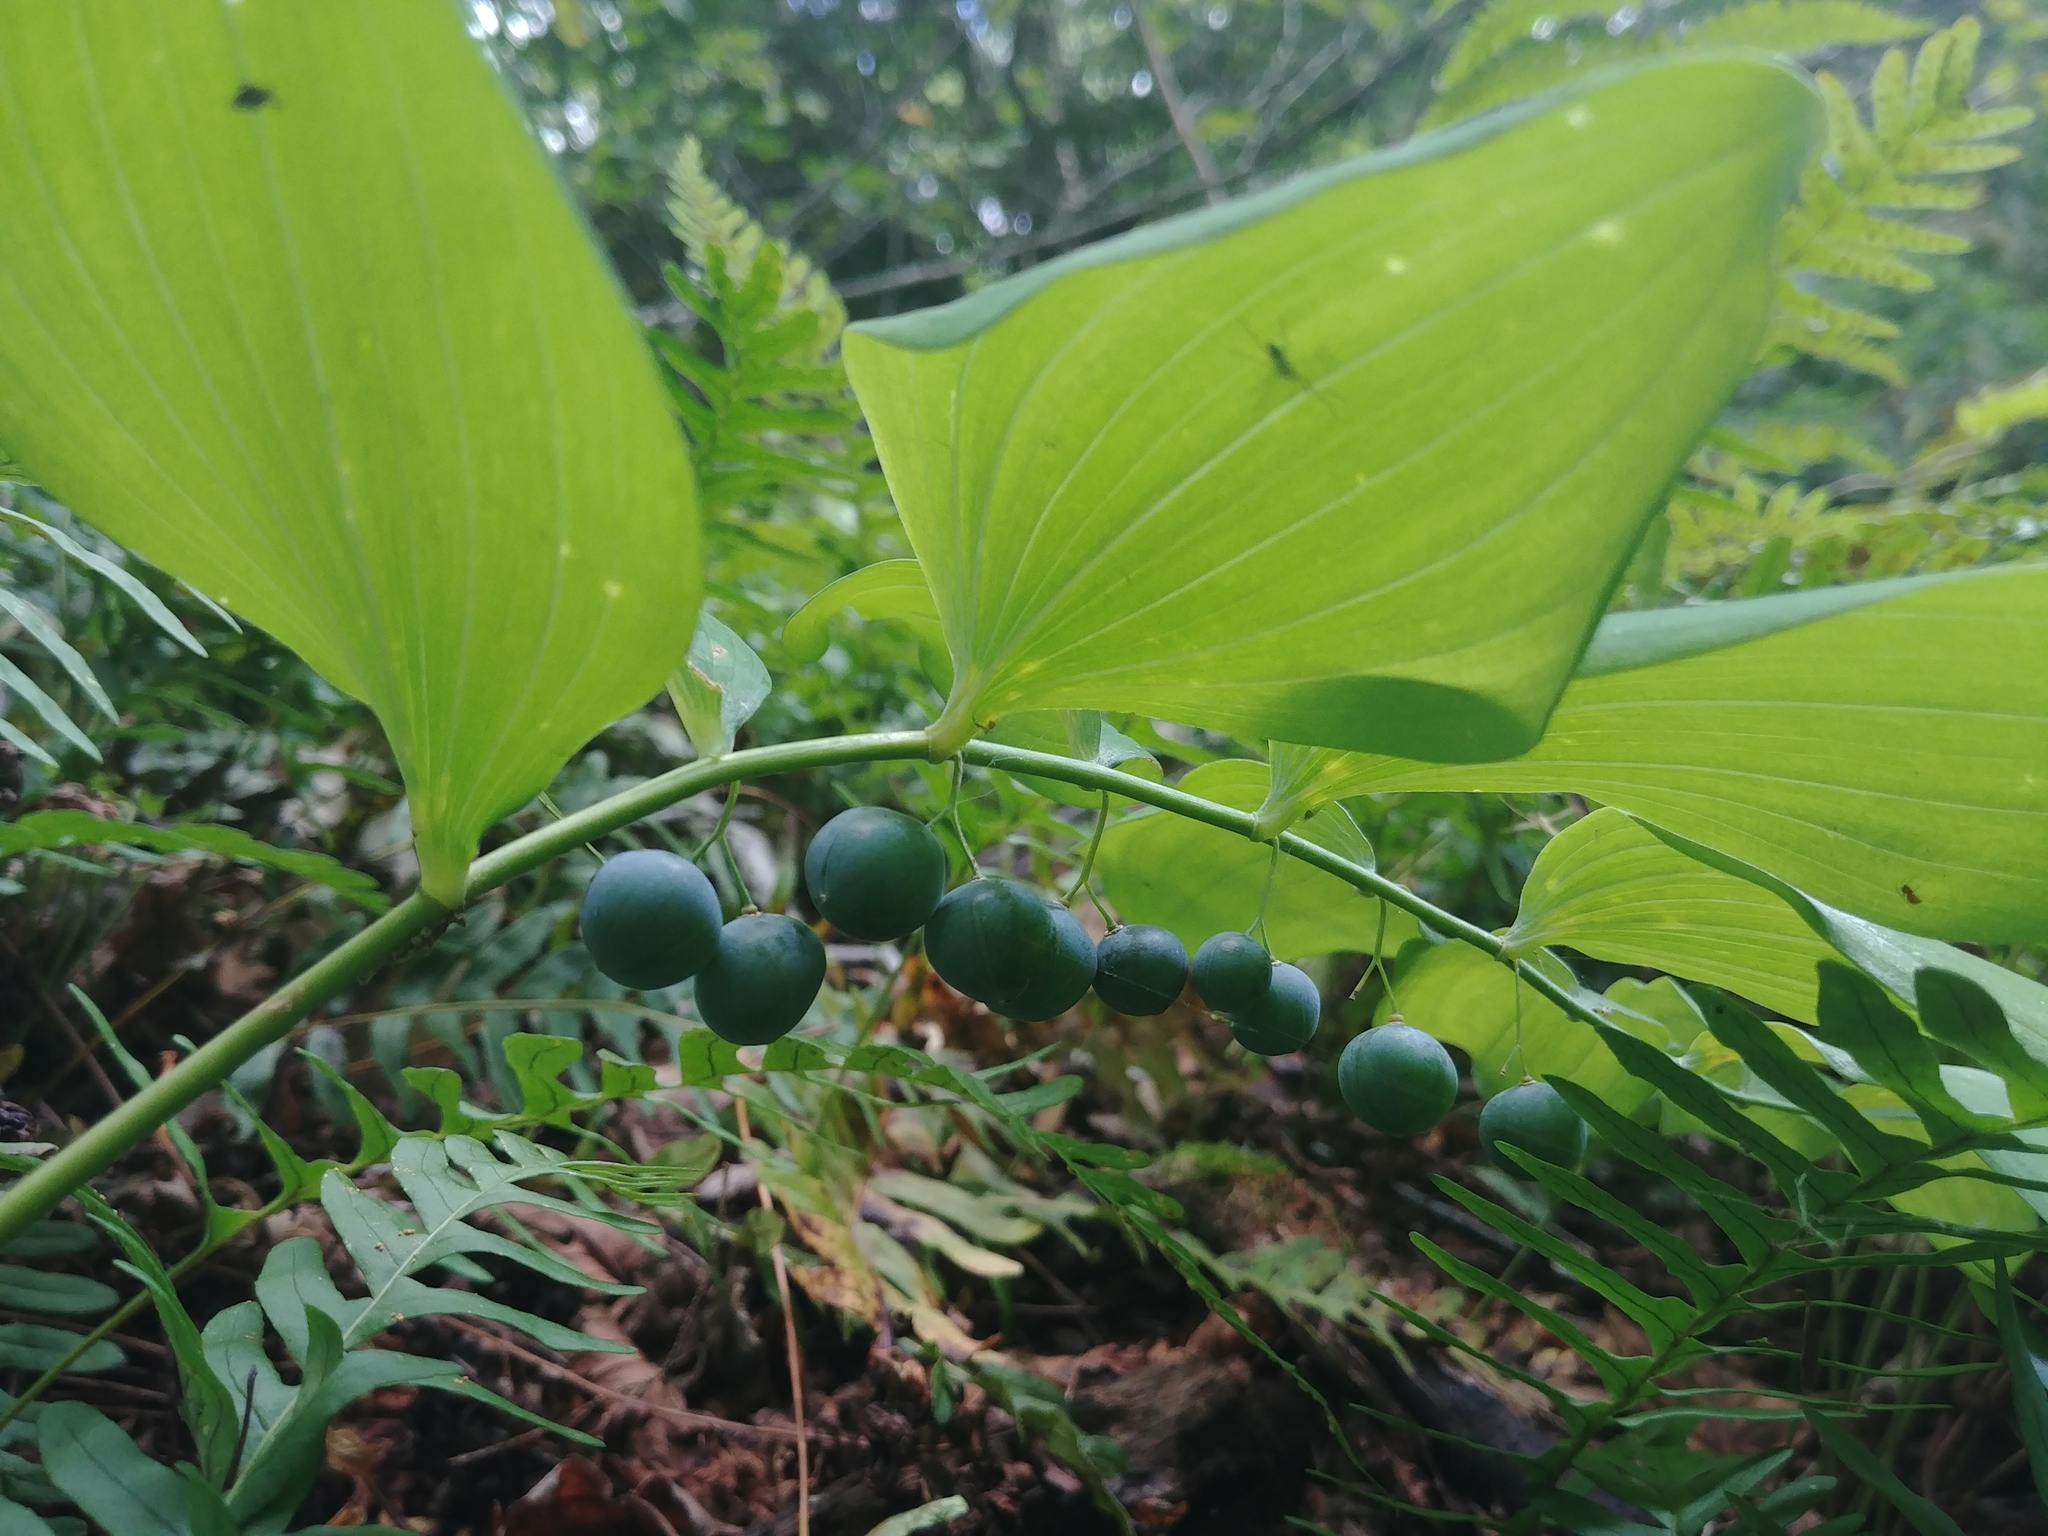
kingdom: Plantae
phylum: Tracheophyta
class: Liliopsida
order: Asparagales
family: Asparagaceae
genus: Polygonatum
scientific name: Polygonatum pubescens
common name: Downy solomon's seal
